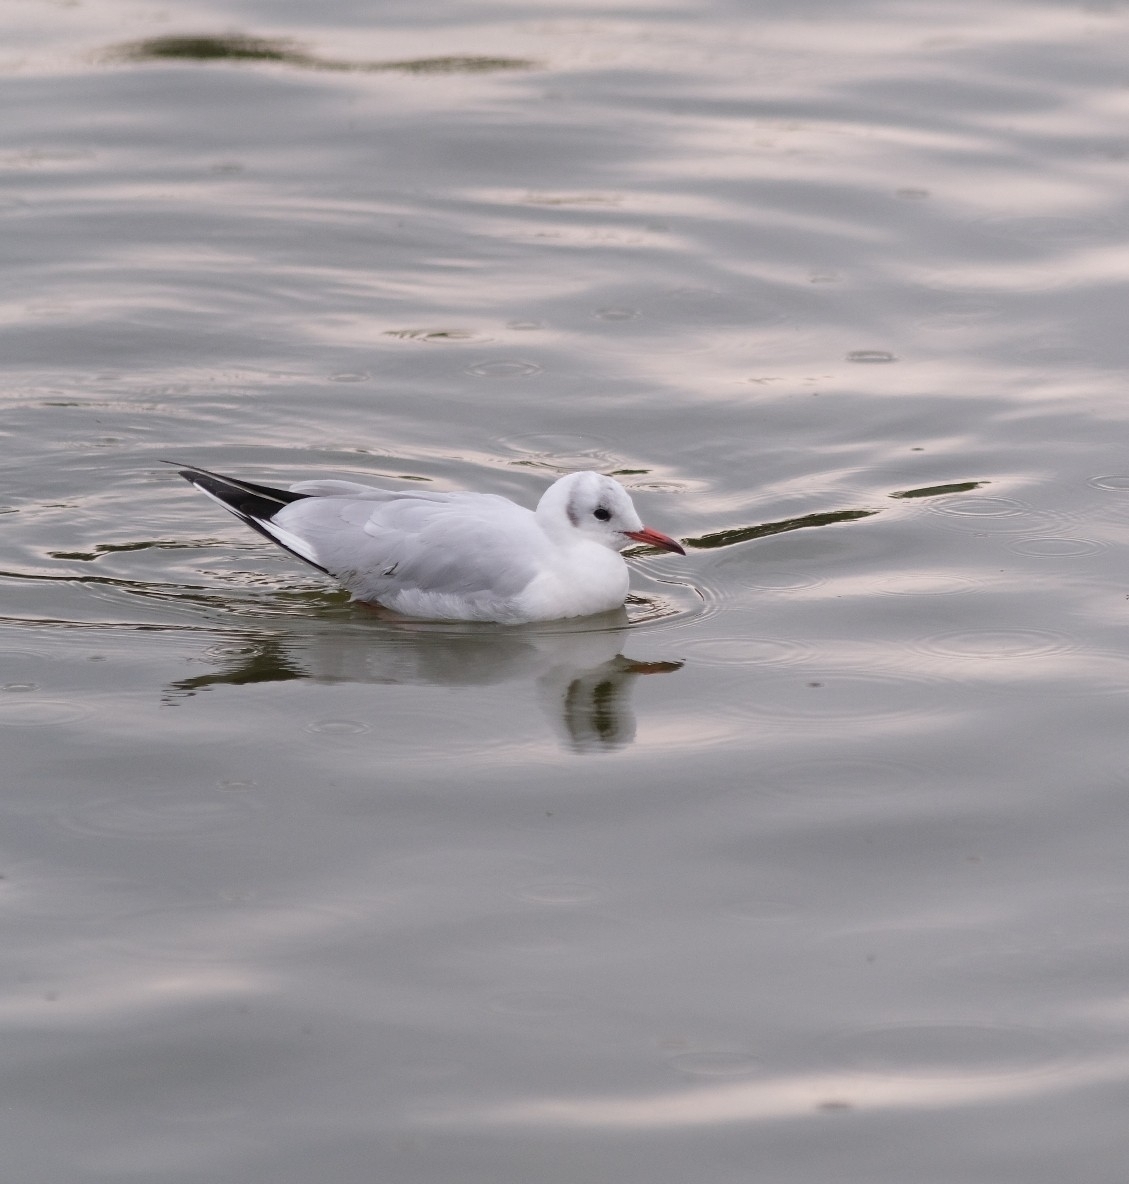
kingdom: Animalia
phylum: Chordata
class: Aves
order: Charadriiformes
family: Laridae
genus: Chroicocephalus
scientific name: Chroicocephalus ridibundus
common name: Black-headed gull
